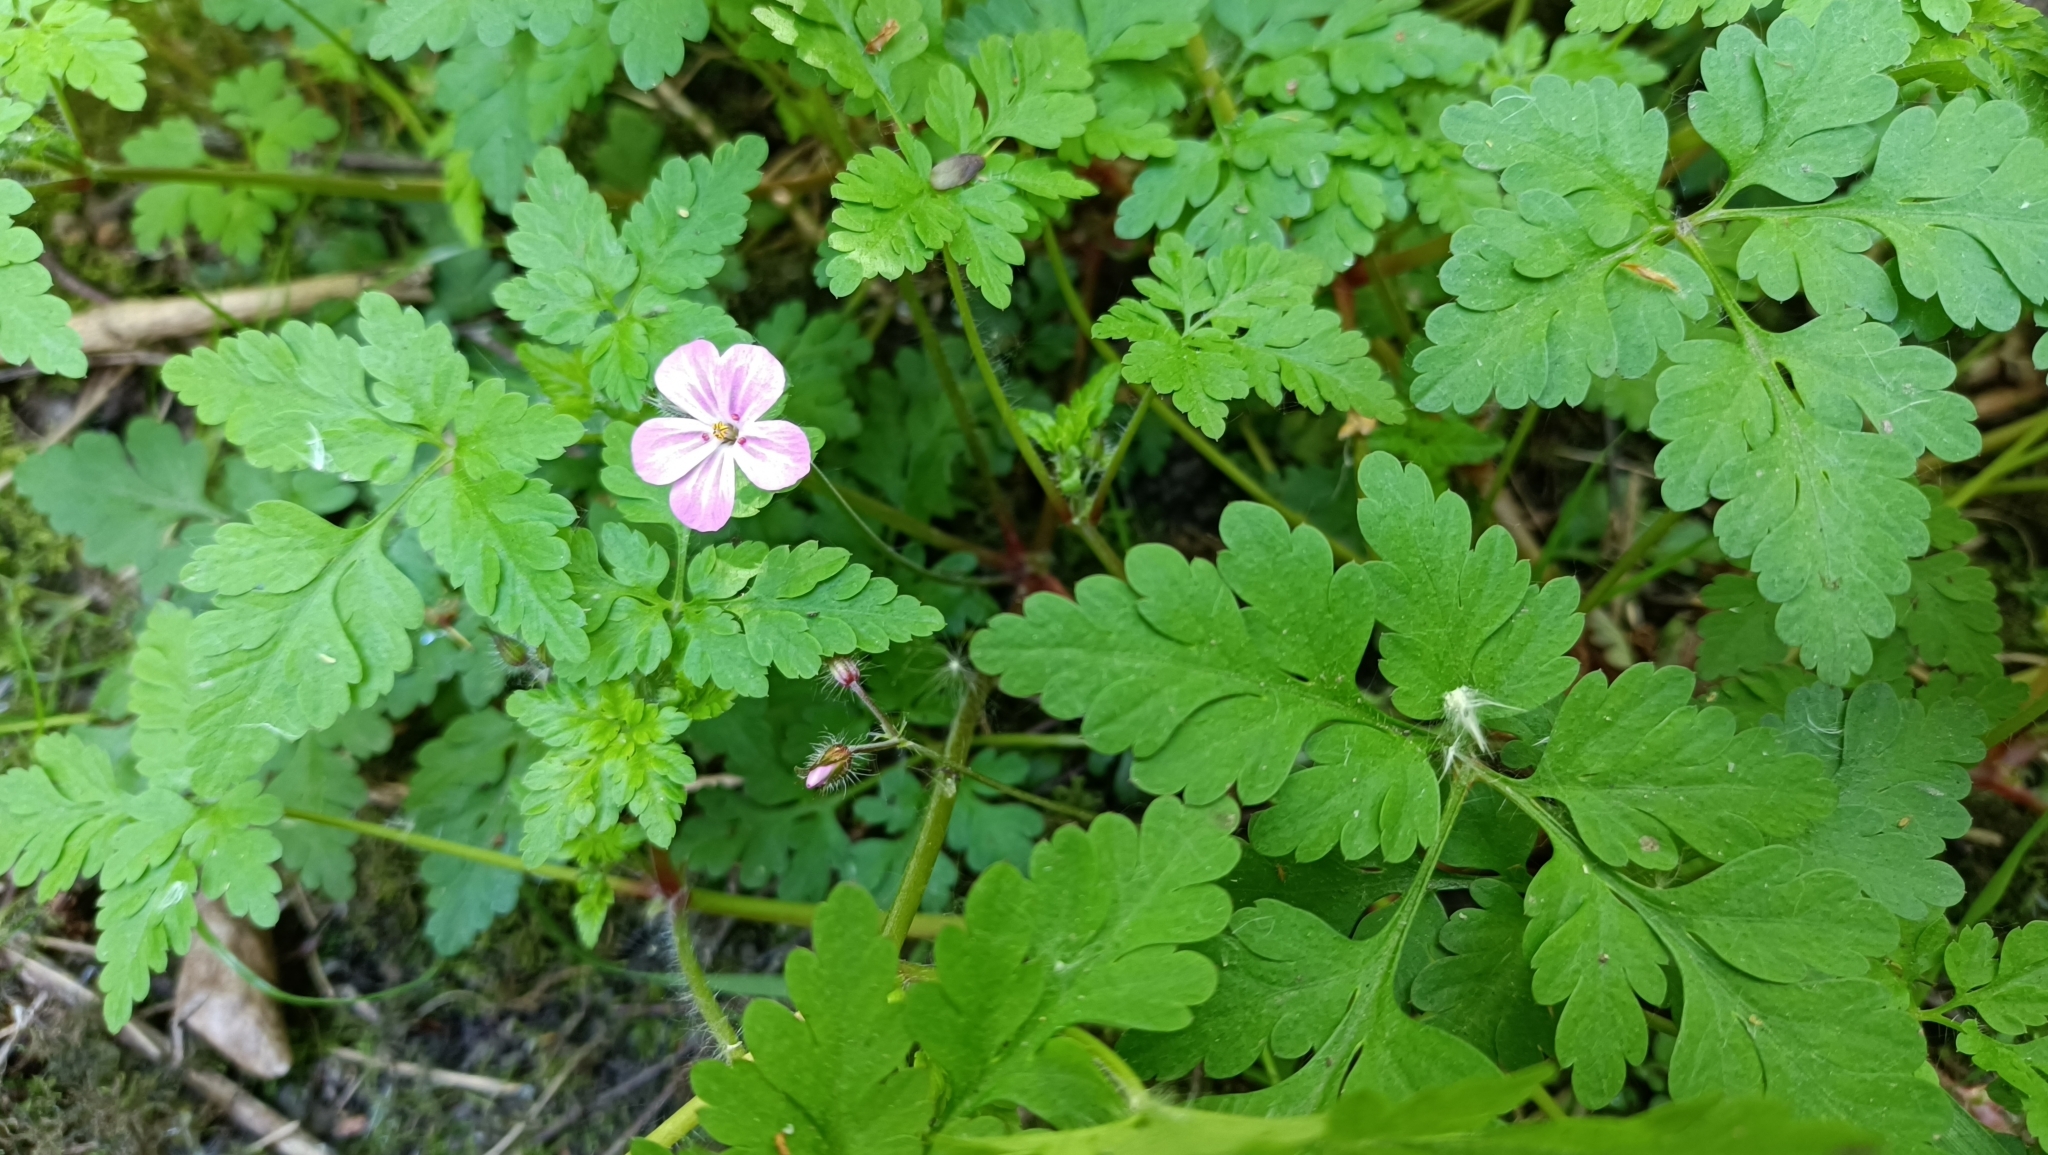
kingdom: Plantae
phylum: Tracheophyta
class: Magnoliopsida
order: Geraniales
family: Geraniaceae
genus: Geranium
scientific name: Geranium robertianum
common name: Herb-robert
